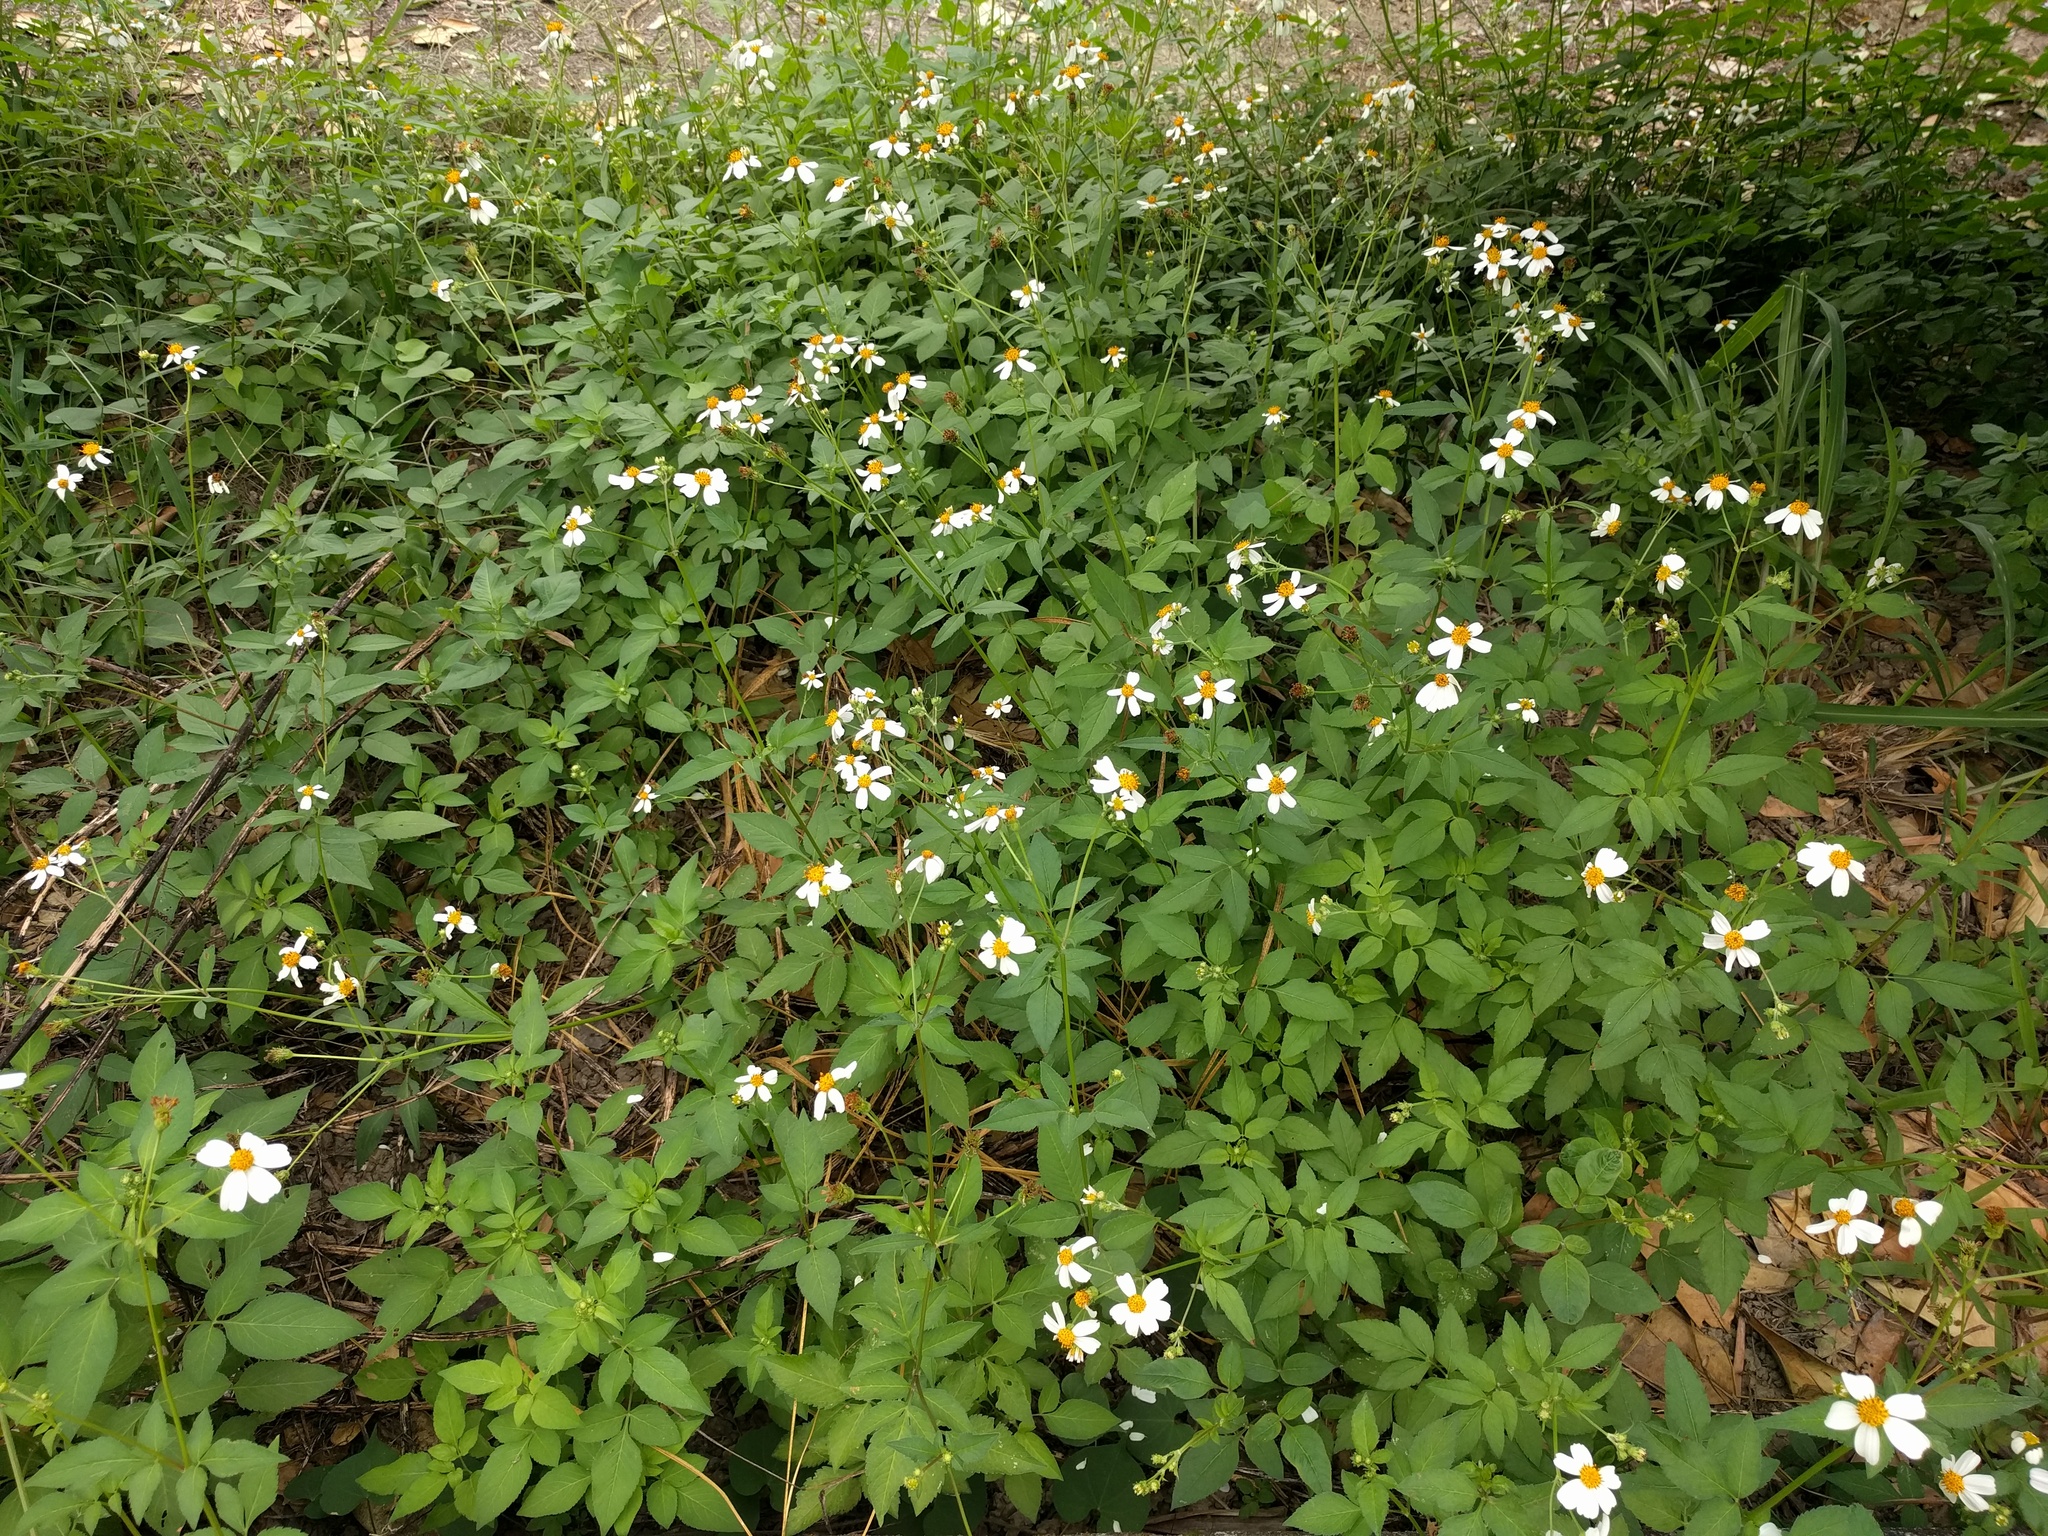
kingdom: Plantae
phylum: Tracheophyta
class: Magnoliopsida
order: Asterales
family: Asteraceae
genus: Bidens
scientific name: Bidens alba
